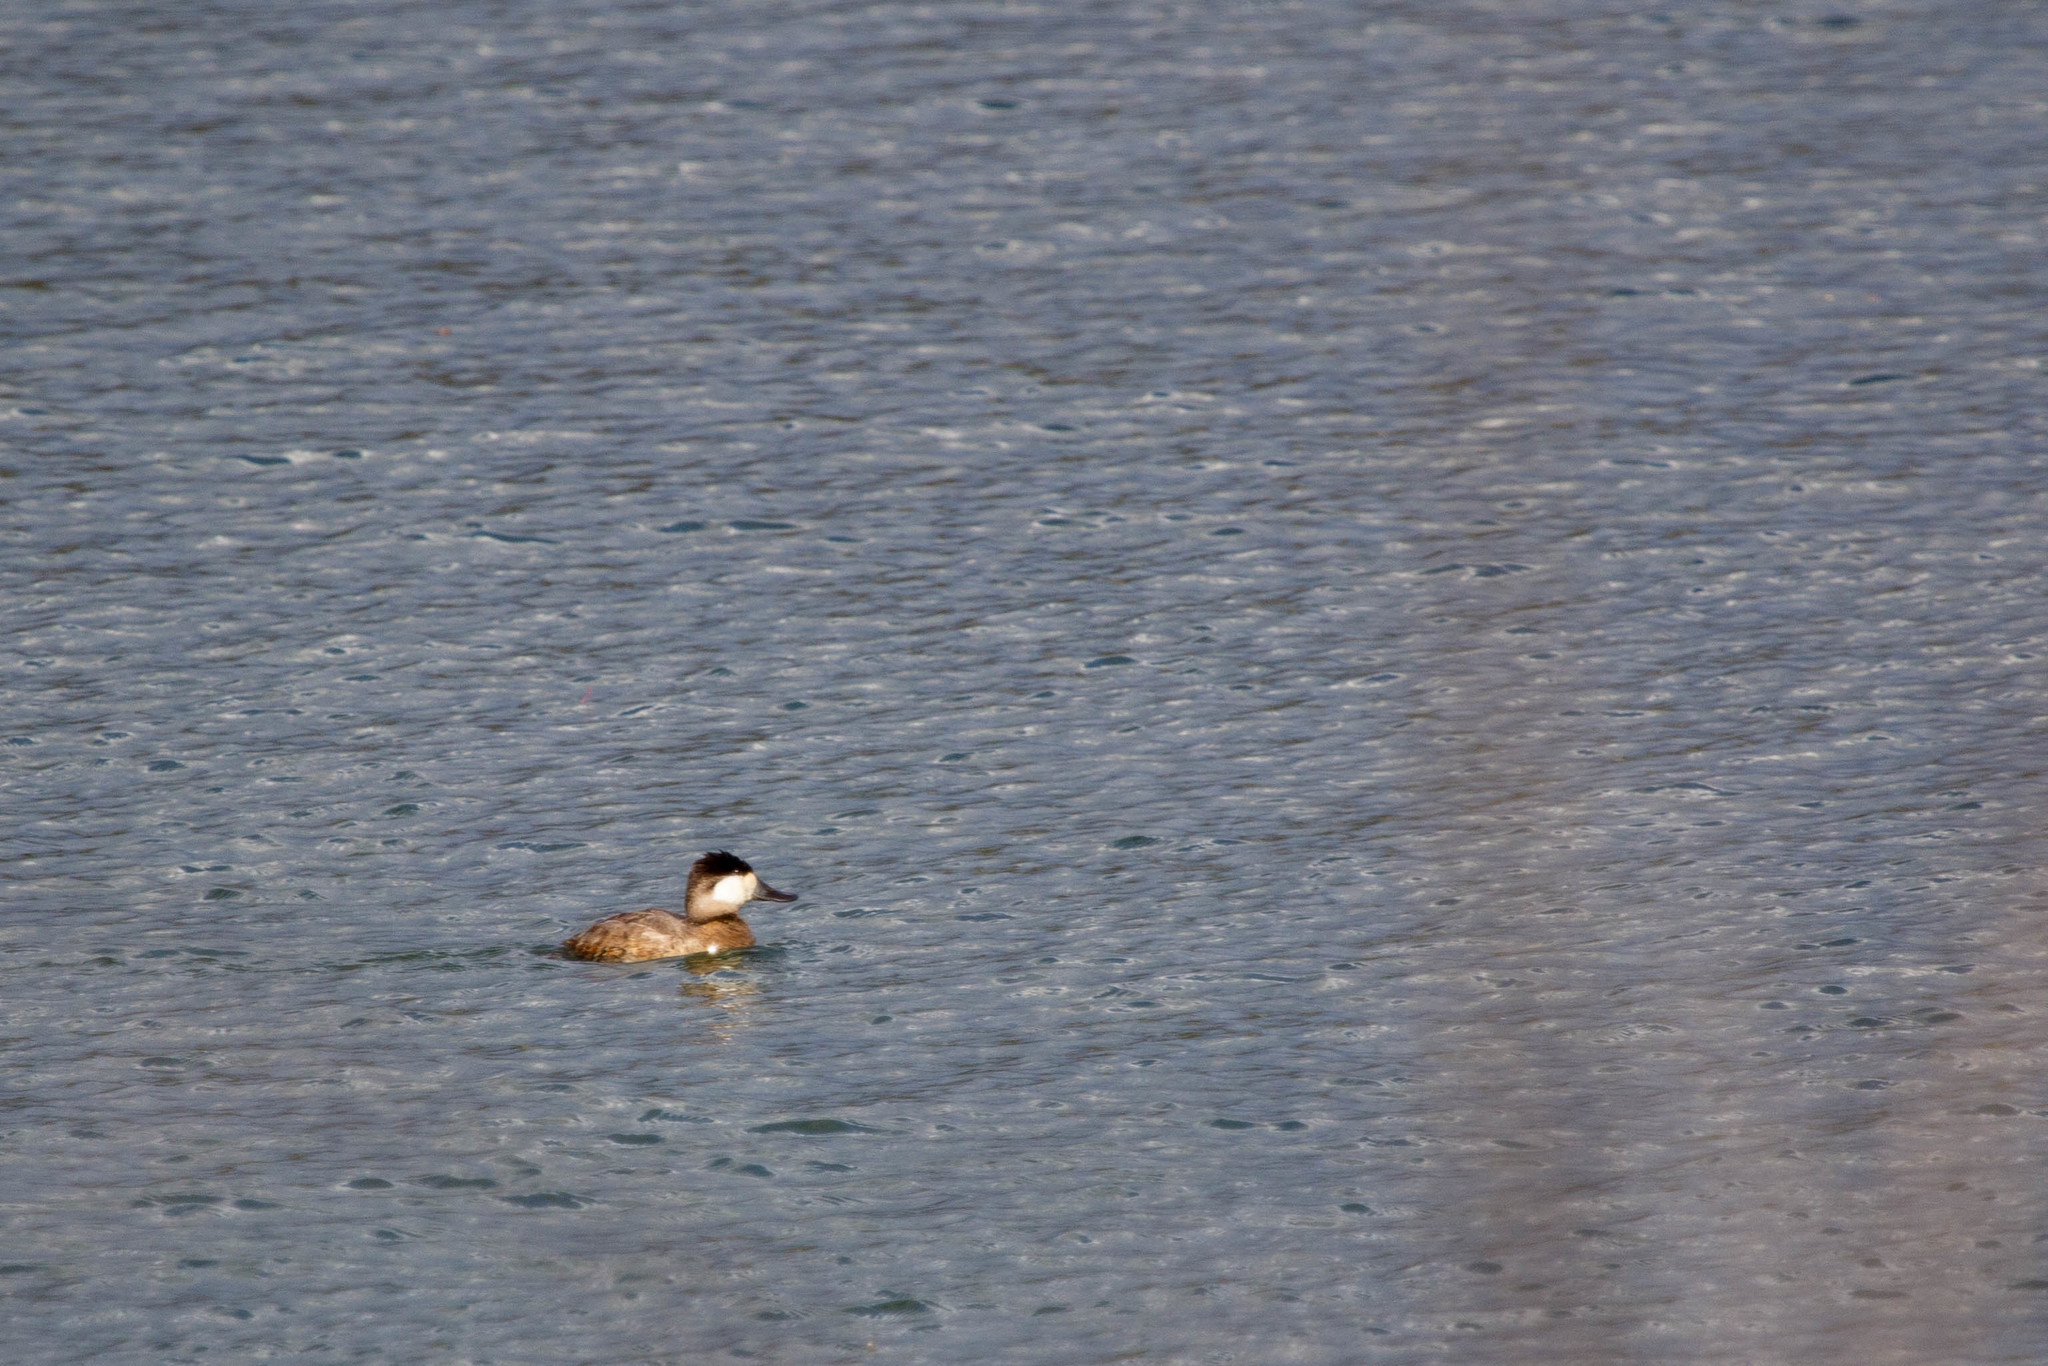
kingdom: Animalia
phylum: Chordata
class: Aves
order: Anseriformes
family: Anatidae
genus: Oxyura
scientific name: Oxyura jamaicensis
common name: Ruddy duck
